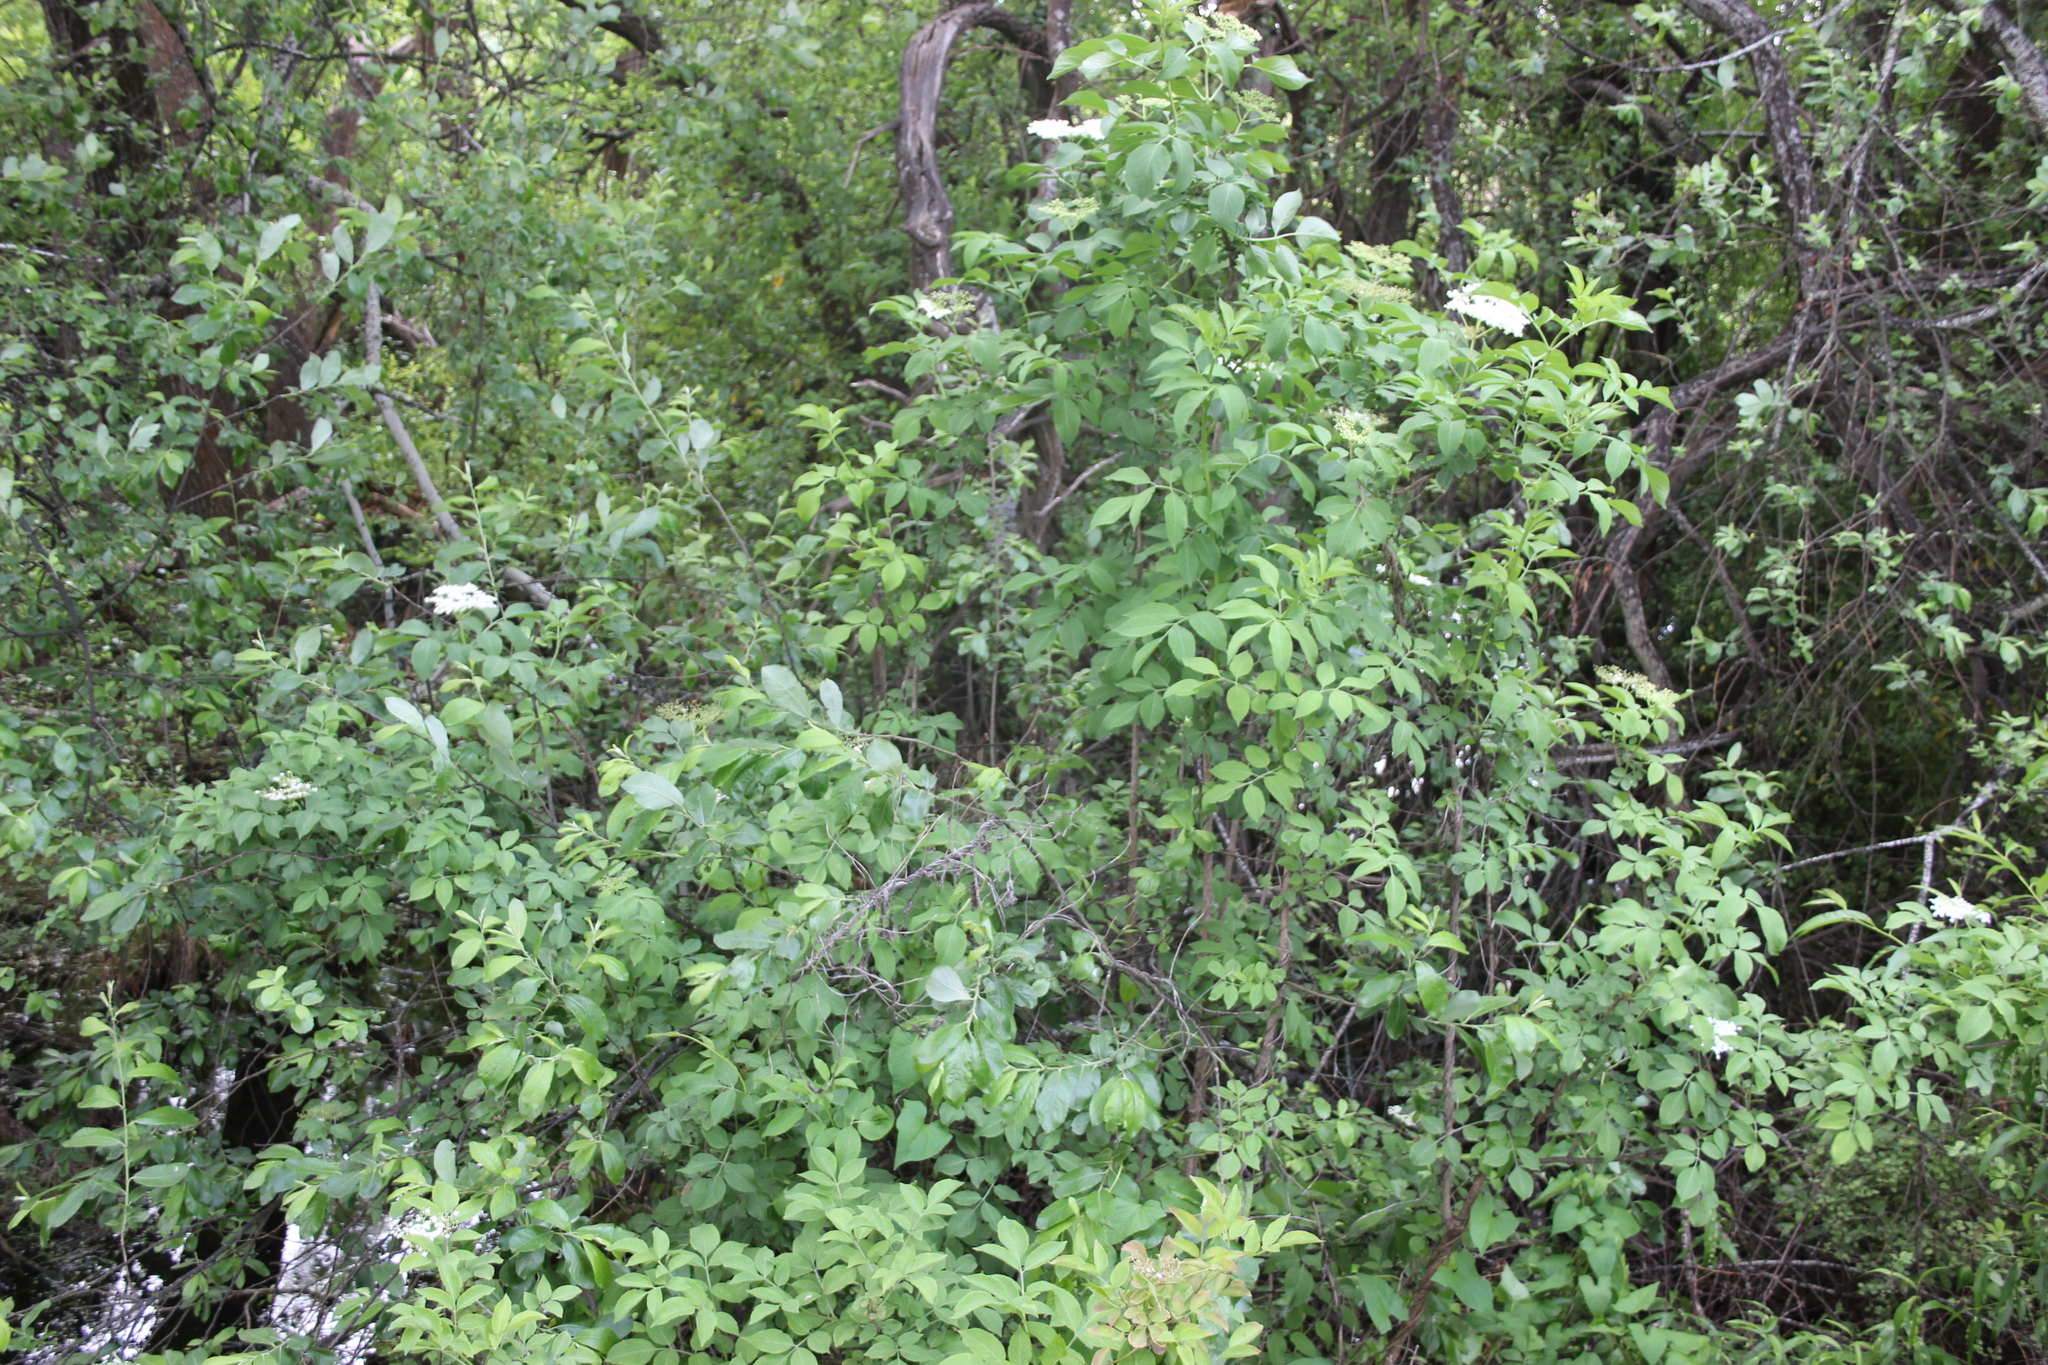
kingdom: Plantae
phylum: Tracheophyta
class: Magnoliopsida
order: Dipsacales
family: Viburnaceae
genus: Sambucus
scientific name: Sambucus nigra
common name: Elder
